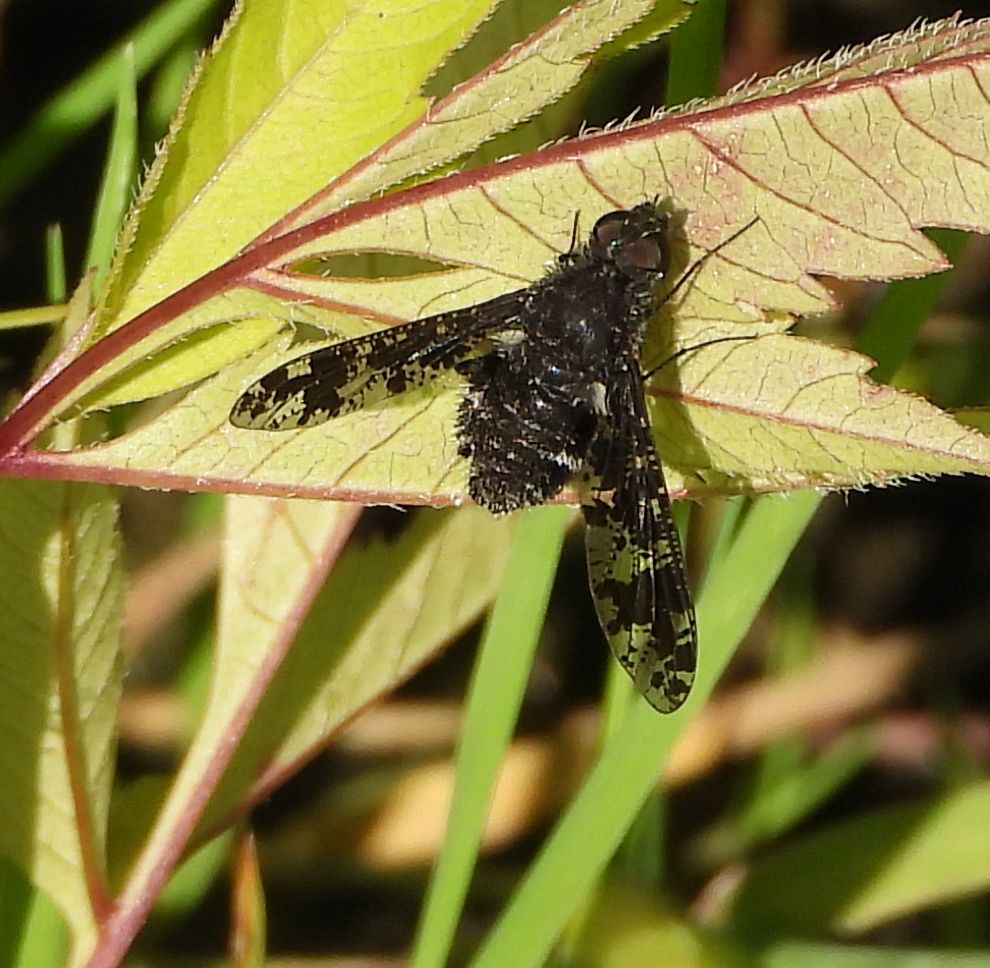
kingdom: Animalia
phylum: Arthropoda
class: Insecta
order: Diptera
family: Bombyliidae
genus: Anthrax
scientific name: Anthrax irroratus
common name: Spotted bee fly
